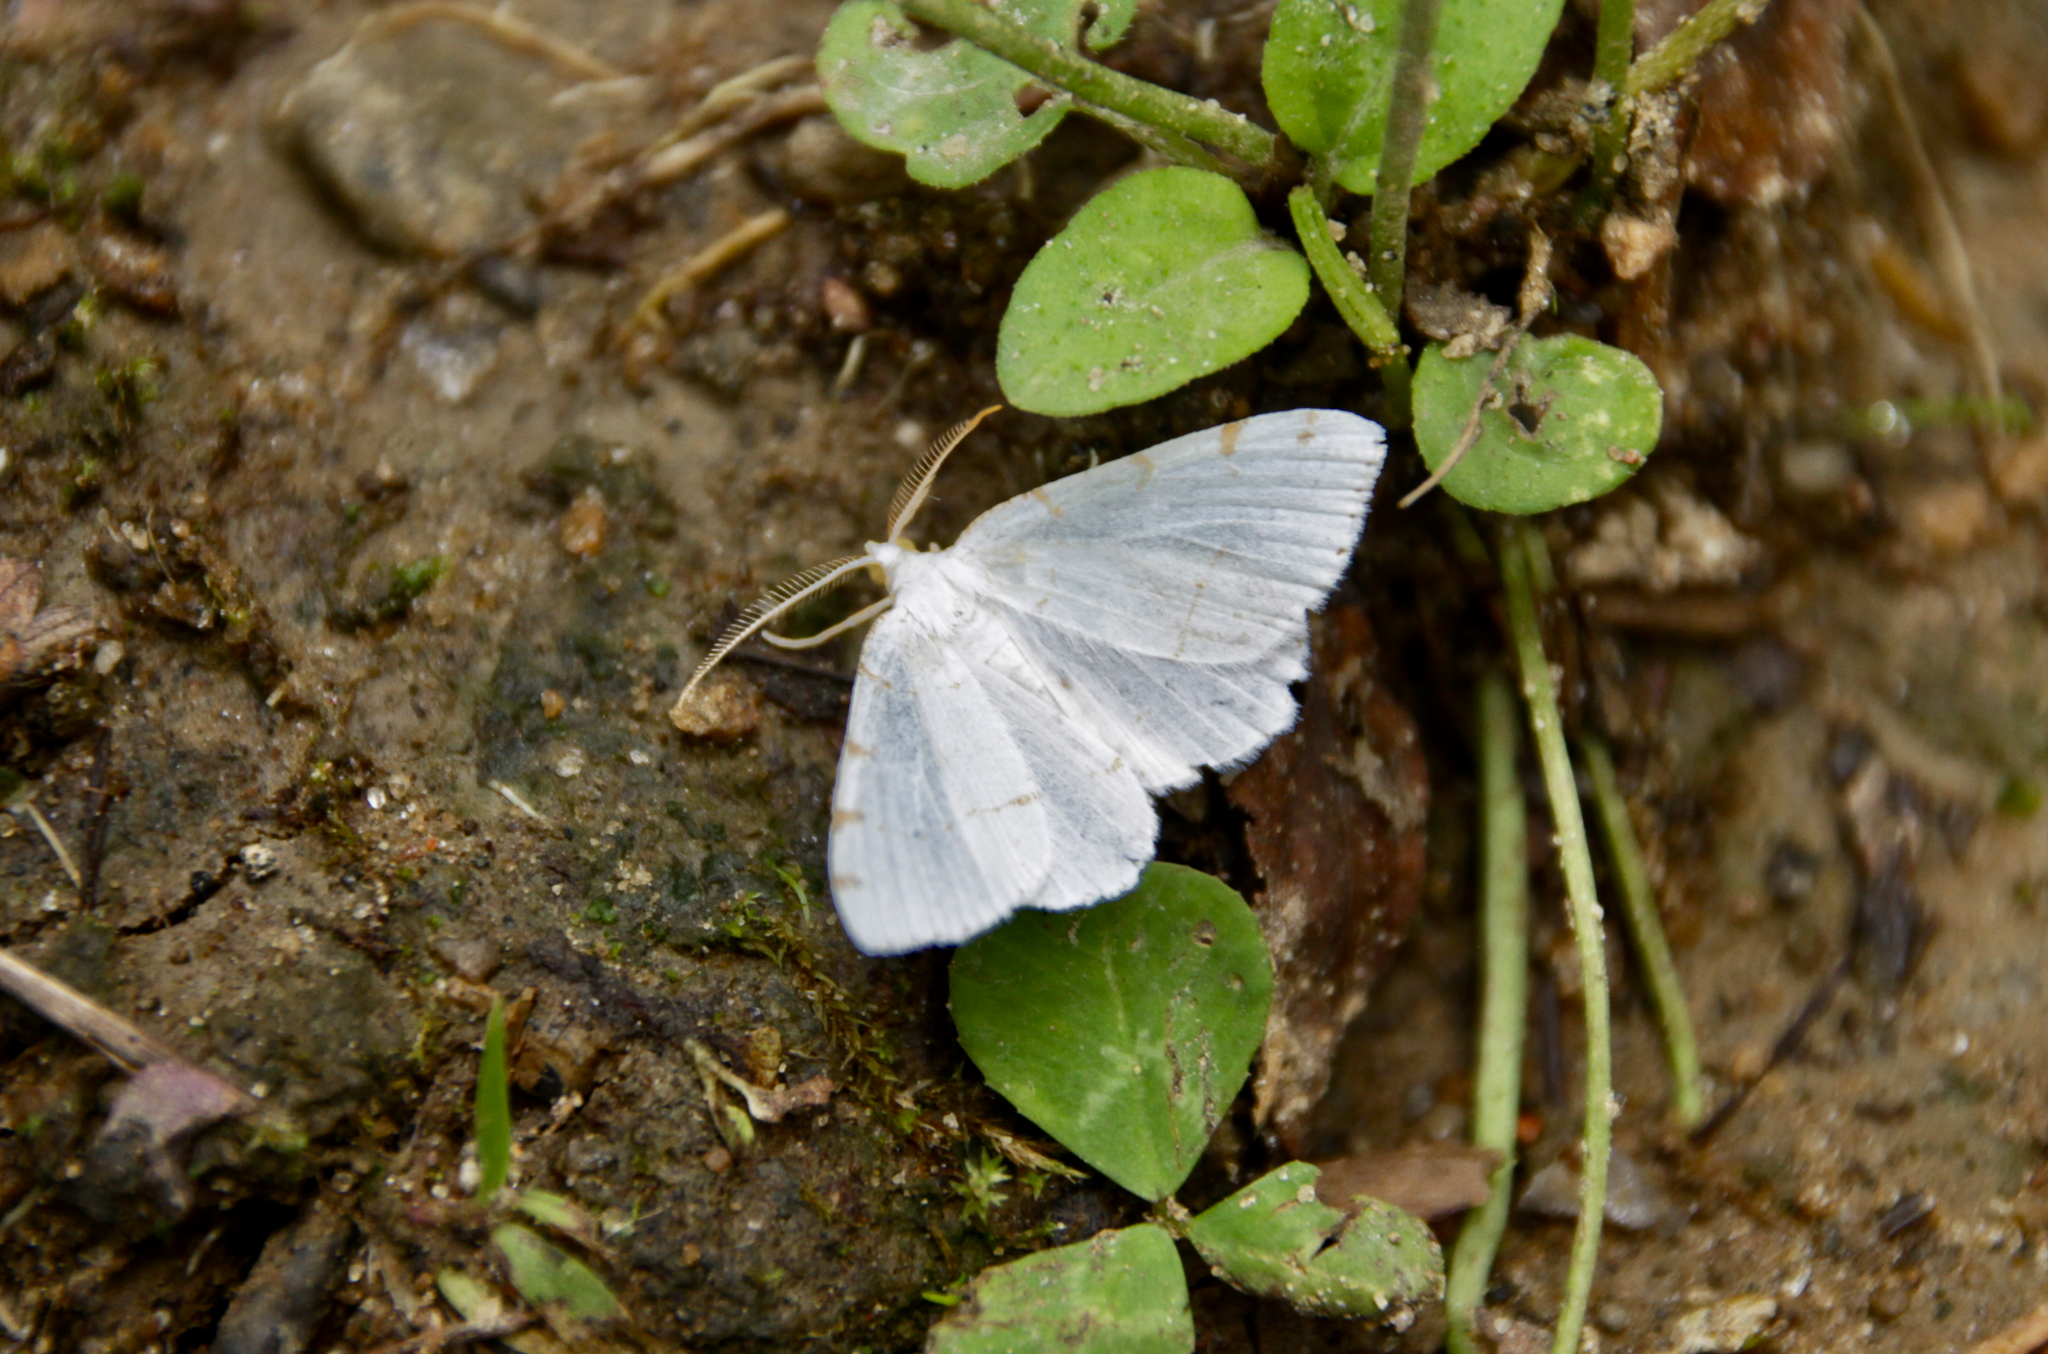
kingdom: Animalia
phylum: Arthropoda
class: Insecta
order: Lepidoptera
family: Geometridae
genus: Macaria
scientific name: Macaria pustularia
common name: Lesser maple spanworm moth
